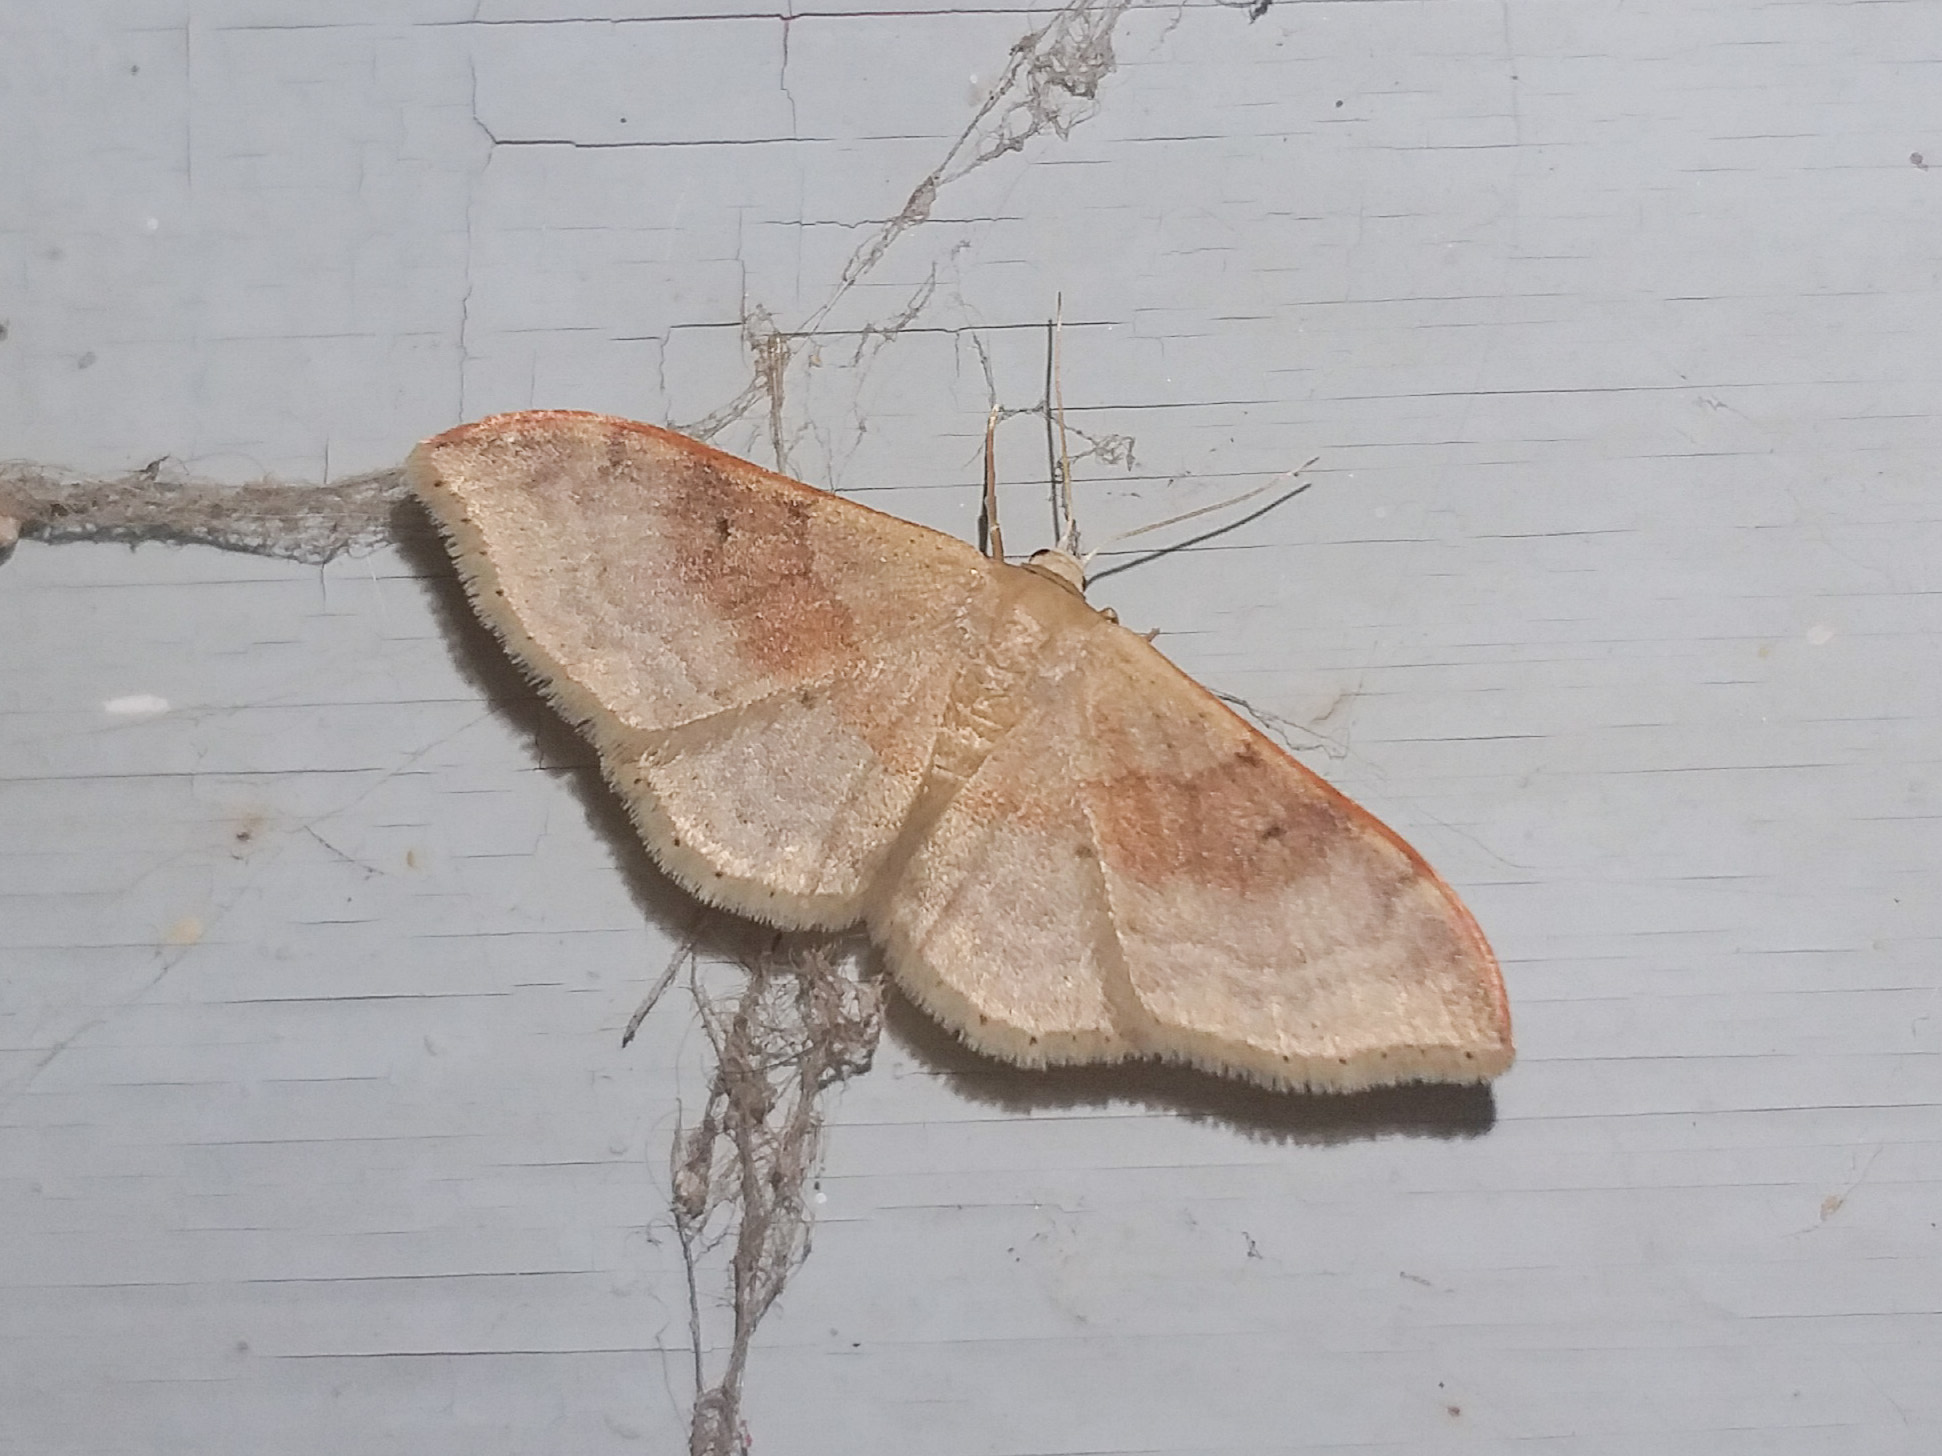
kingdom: Animalia
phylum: Arthropoda
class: Insecta
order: Lepidoptera
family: Geometridae
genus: Idaea
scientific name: Idaea degeneraria
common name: Portland ribbon wave
